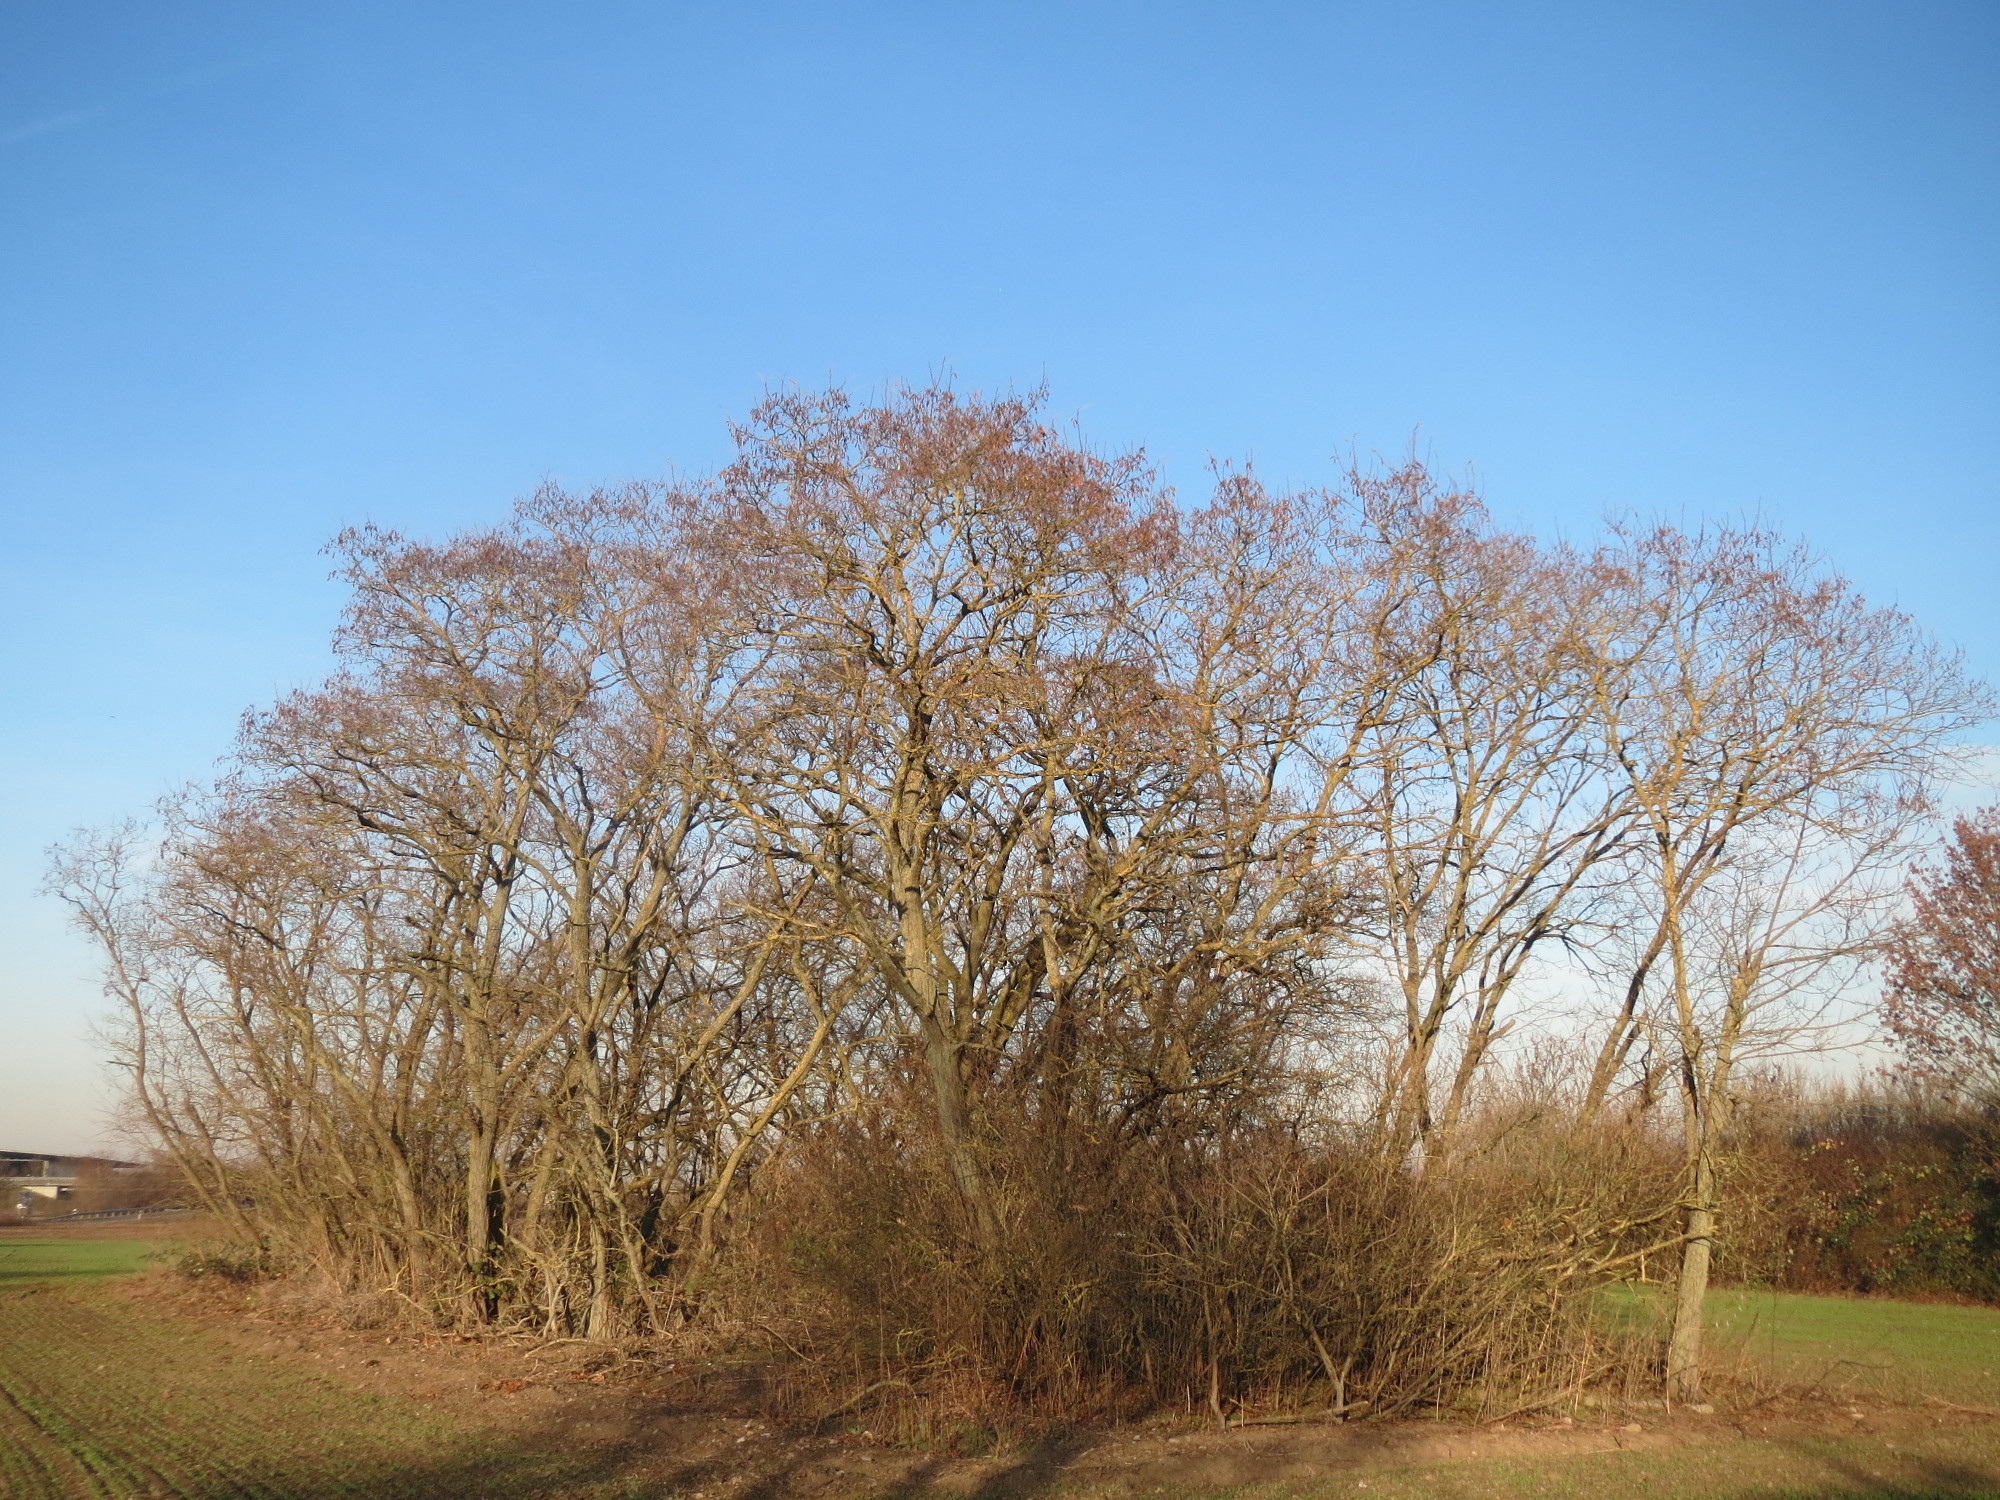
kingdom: Plantae
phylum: Tracheophyta
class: Magnoliopsida
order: Fabales
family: Fabaceae
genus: Robinia
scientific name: Robinia pseudoacacia
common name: Black locust
